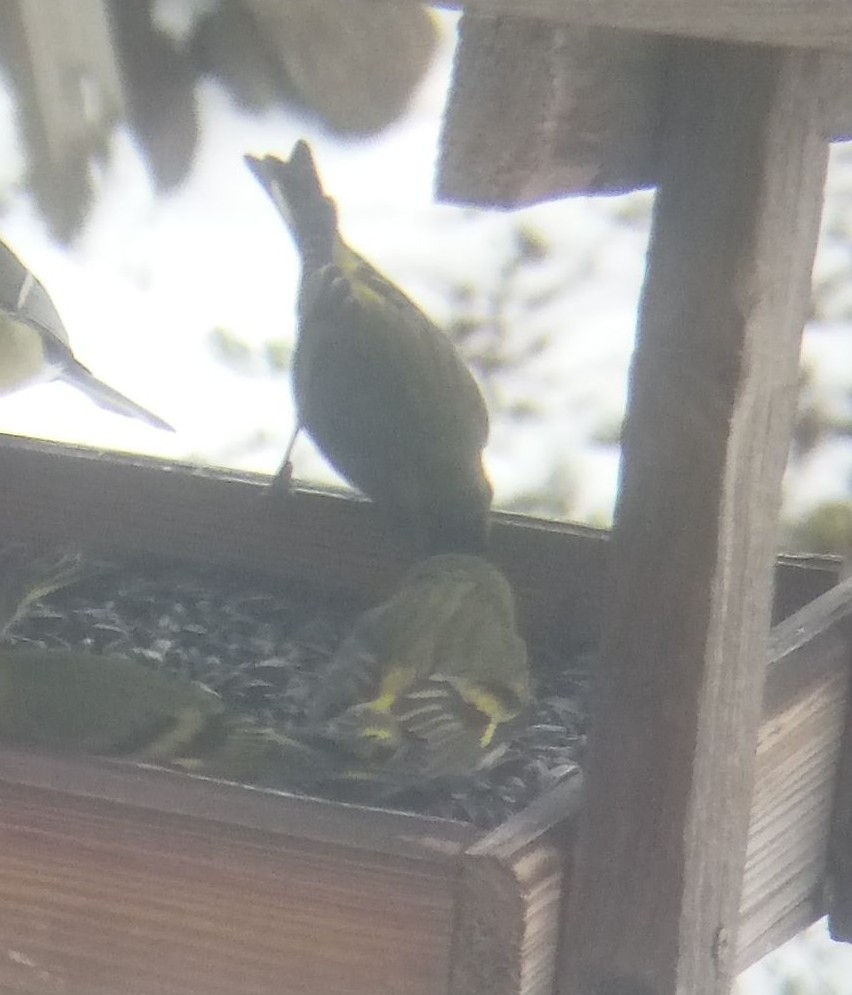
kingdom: Animalia
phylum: Chordata
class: Aves
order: Passeriformes
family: Fringillidae
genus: Spinus
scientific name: Spinus spinus
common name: Eurasian siskin
